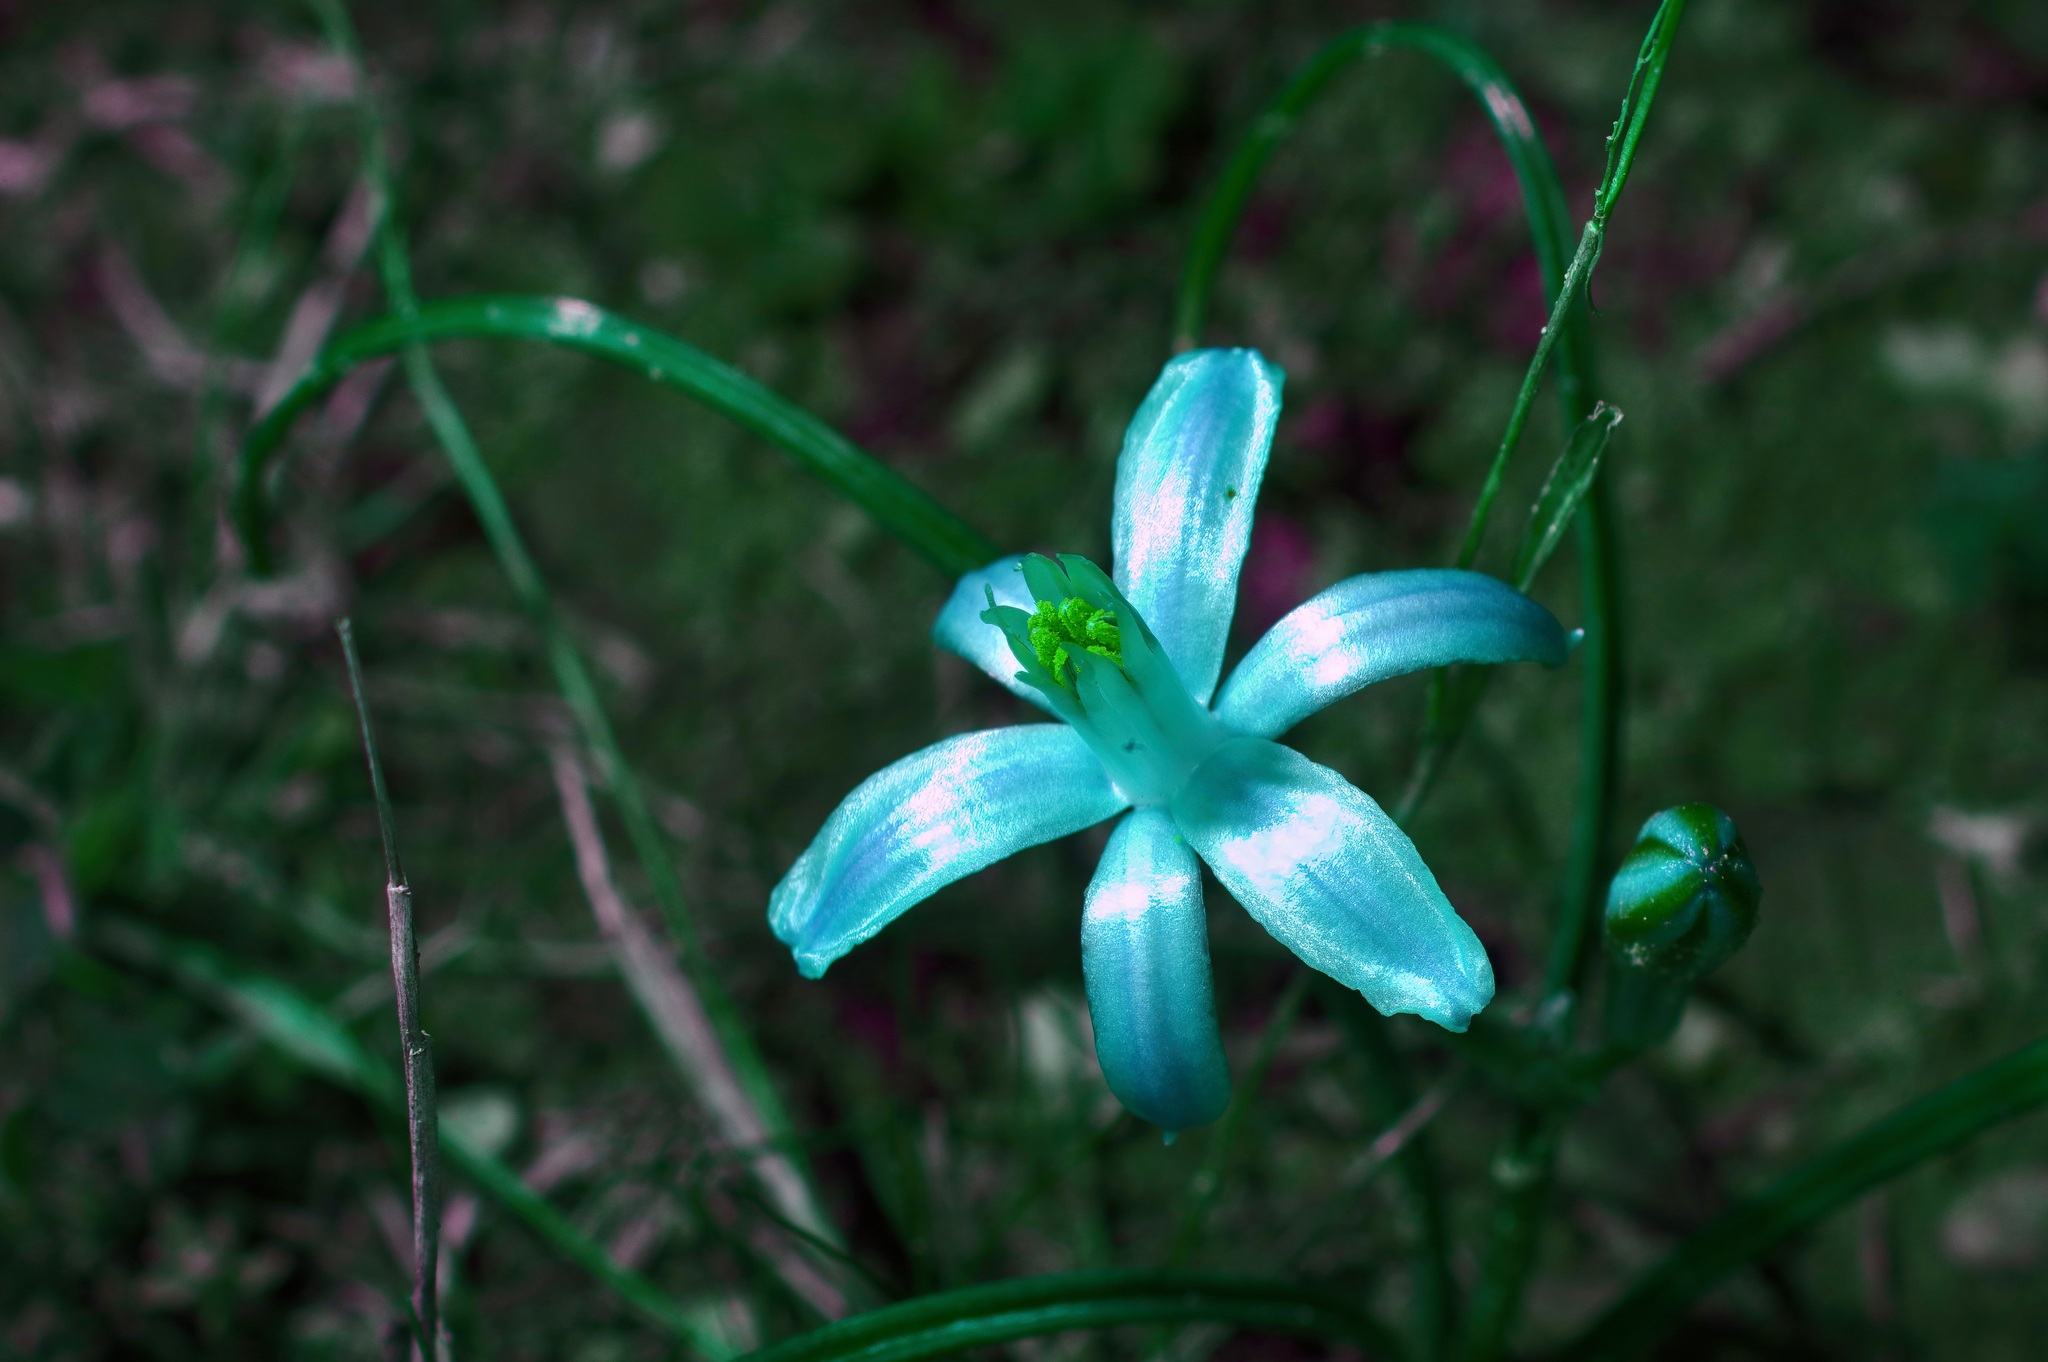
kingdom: Plantae
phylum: Tracheophyta
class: Liliopsida
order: Asparagales
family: Asparagaceae
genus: Androstephium
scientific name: Androstephium coeruleum
